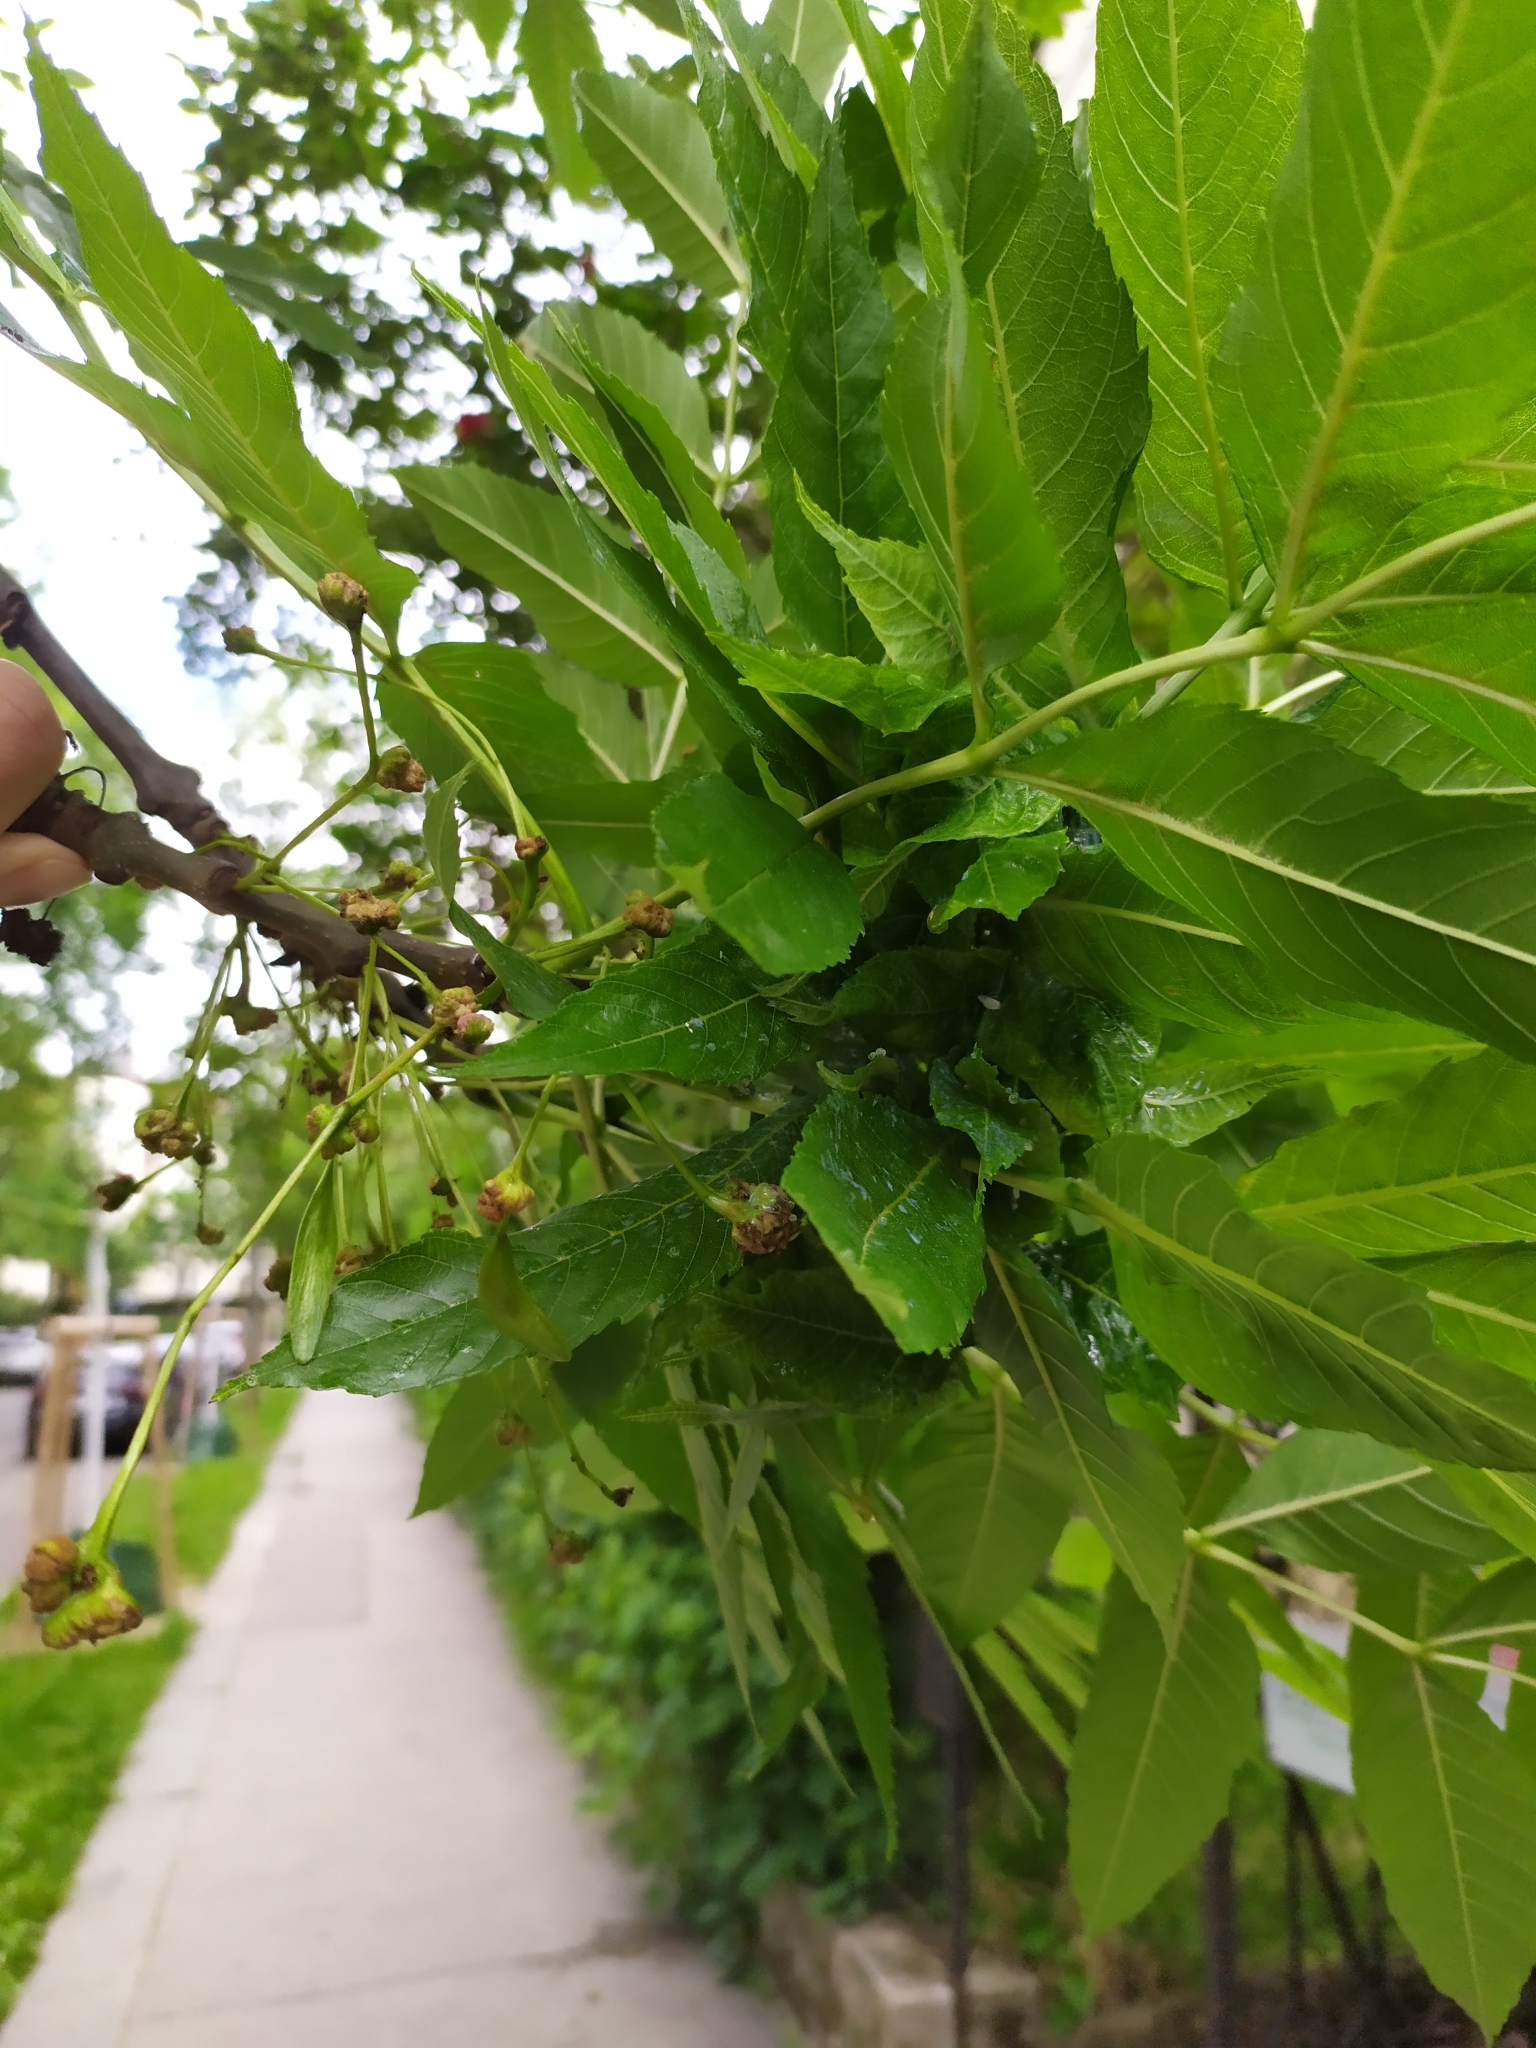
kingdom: Animalia
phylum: Arthropoda
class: Arachnida
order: Trombidiformes
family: Eriophyidae
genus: Aceria
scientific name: Aceria fraxinivora
